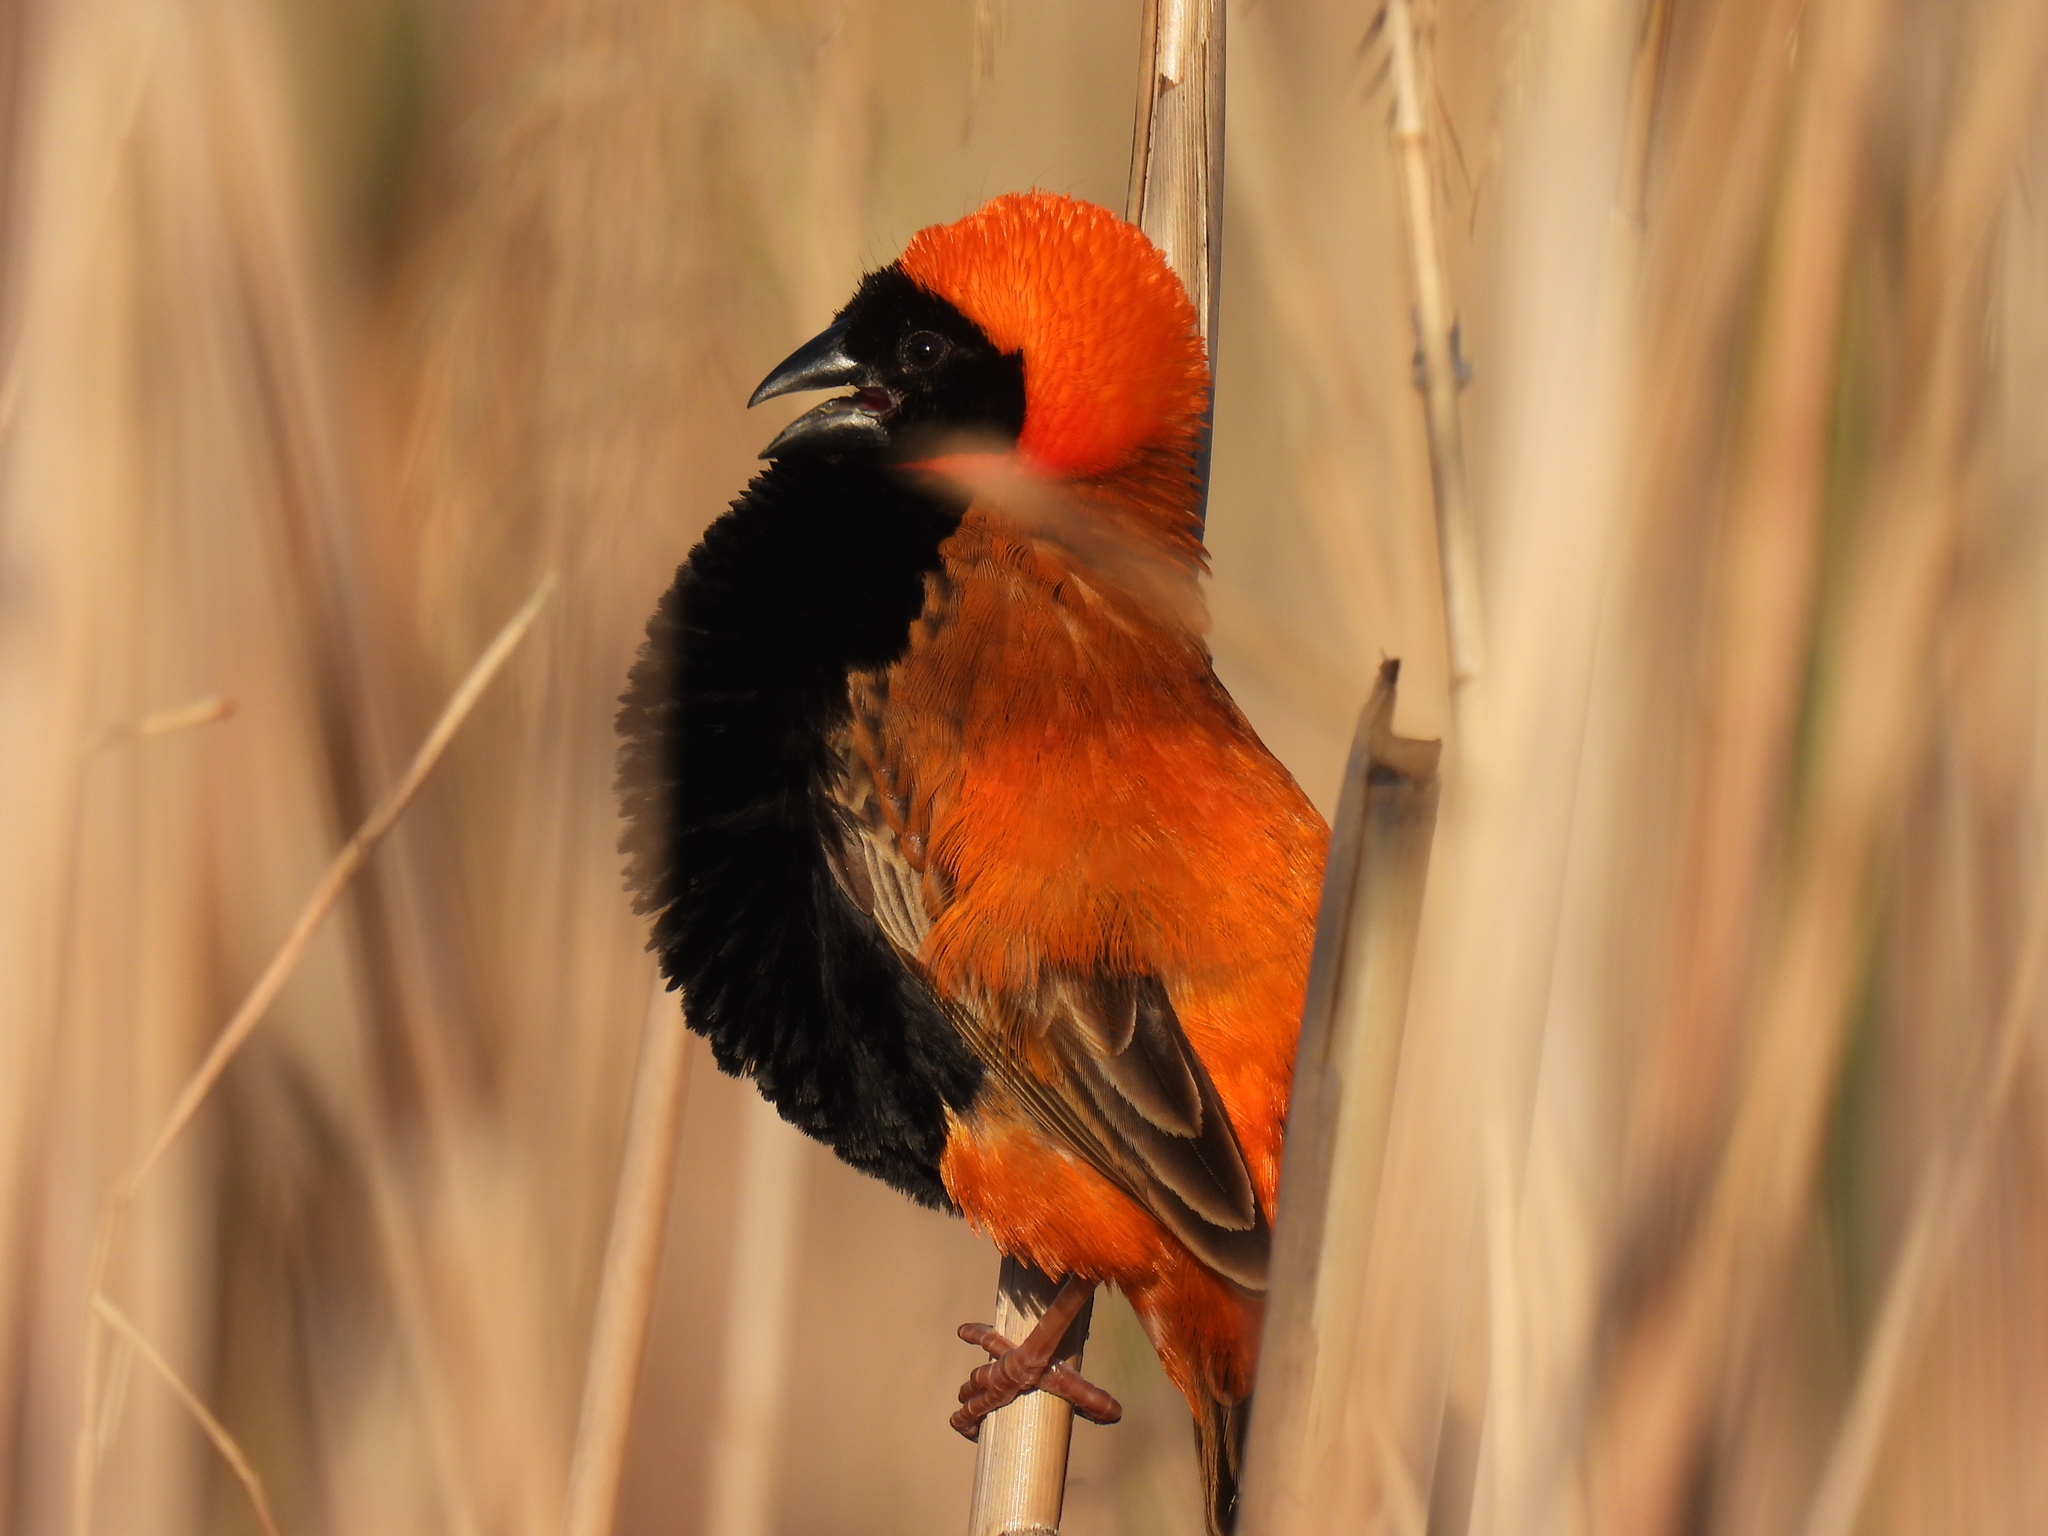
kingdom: Animalia
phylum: Chordata
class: Aves
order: Passeriformes
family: Ploceidae
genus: Euplectes
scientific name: Euplectes orix
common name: Southern red bishop
